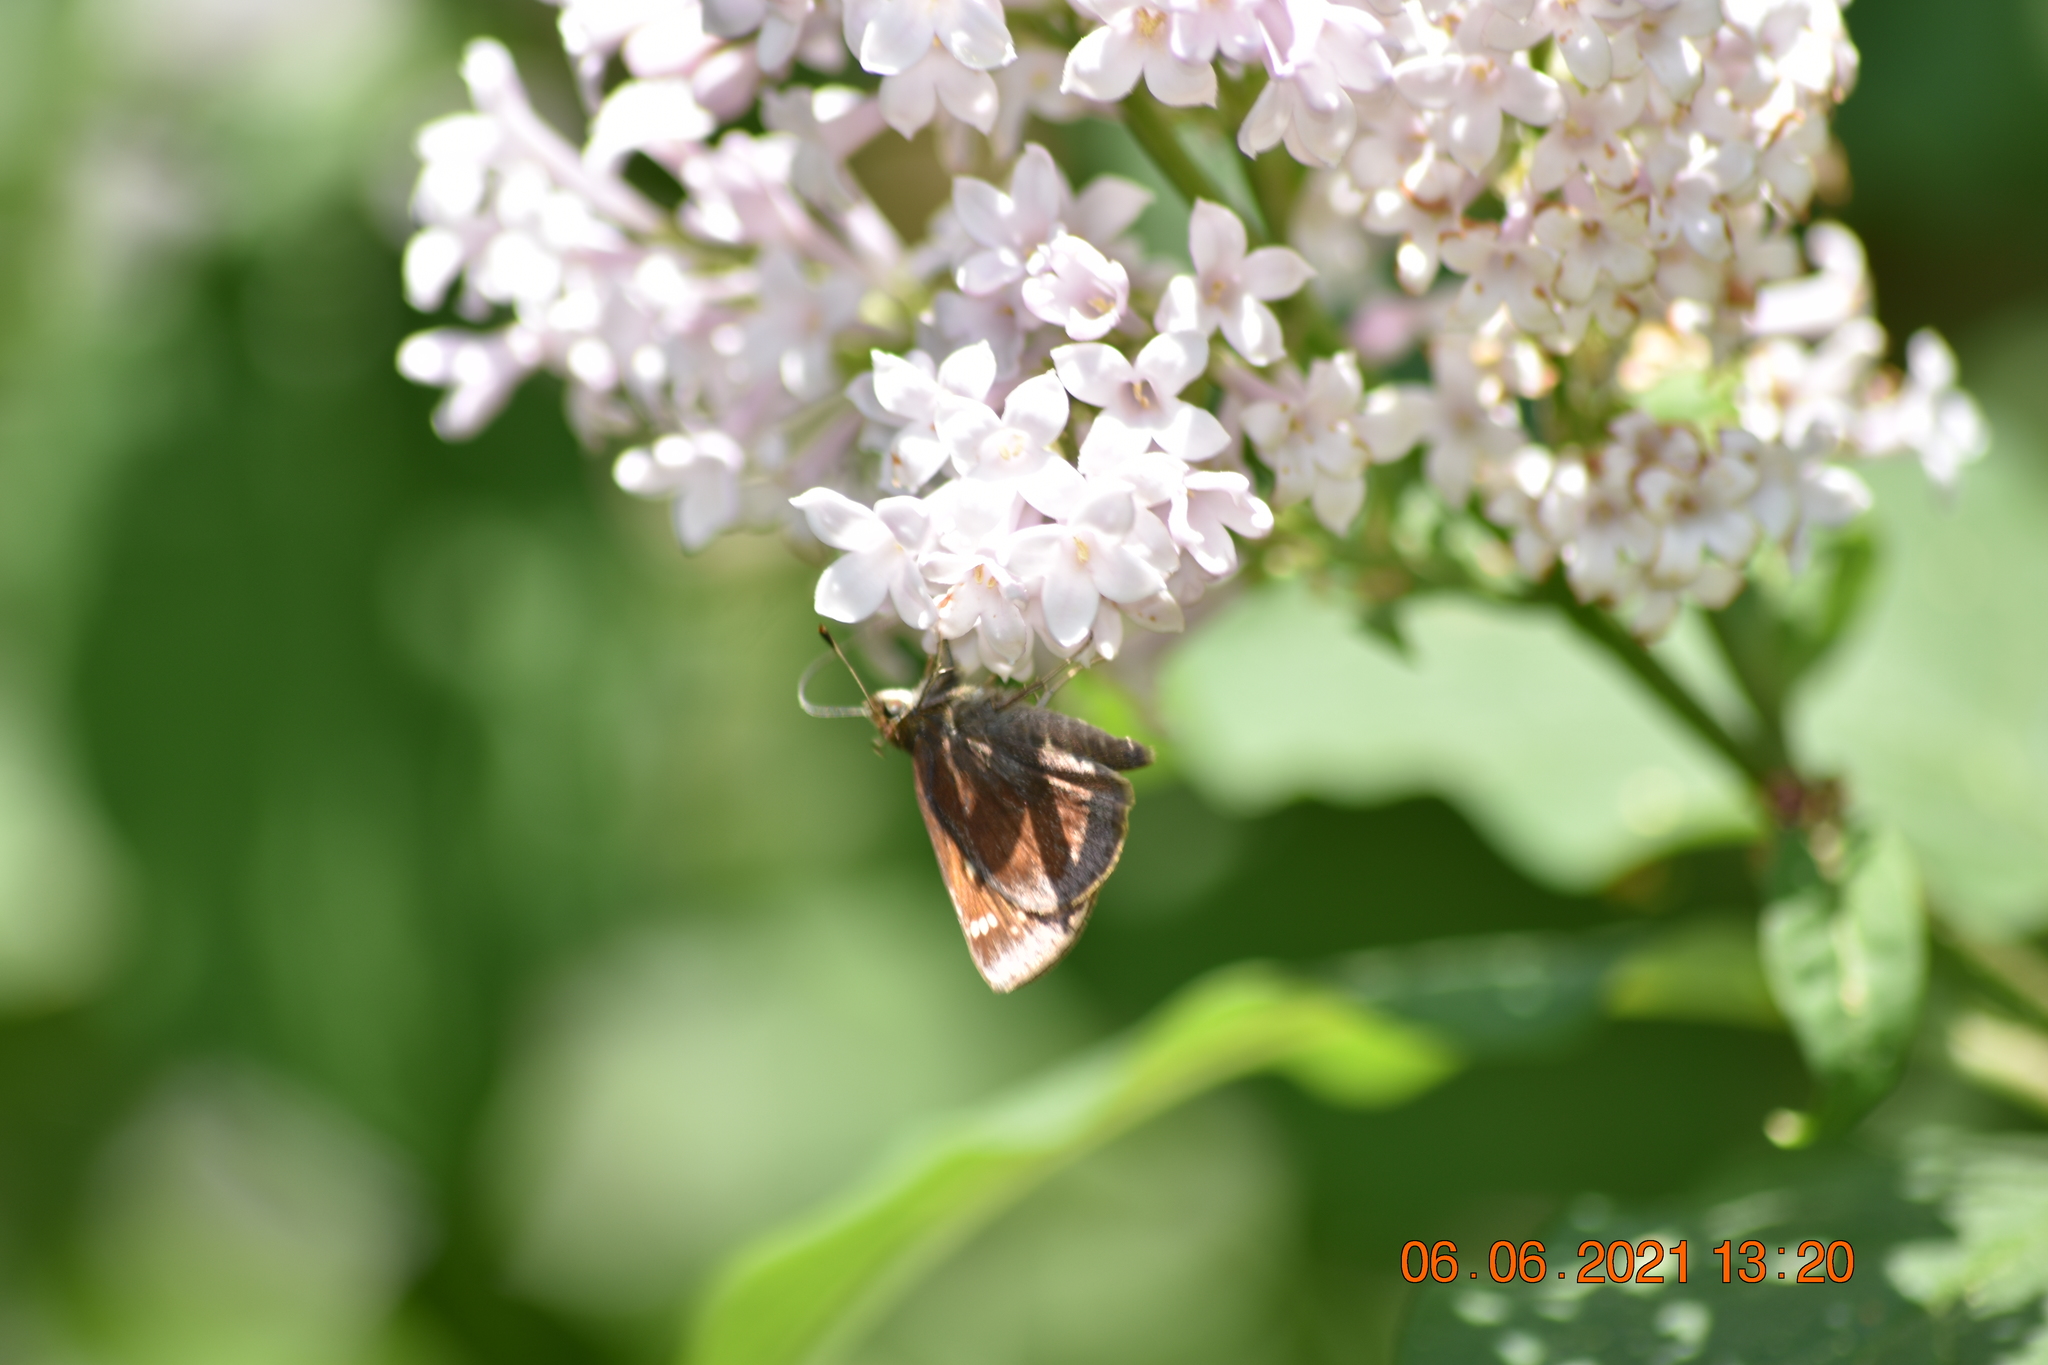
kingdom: Animalia
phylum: Arthropoda
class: Insecta
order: Lepidoptera
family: Hesperiidae
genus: Lon
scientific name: Lon hobomok
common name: Hobomok skipper
